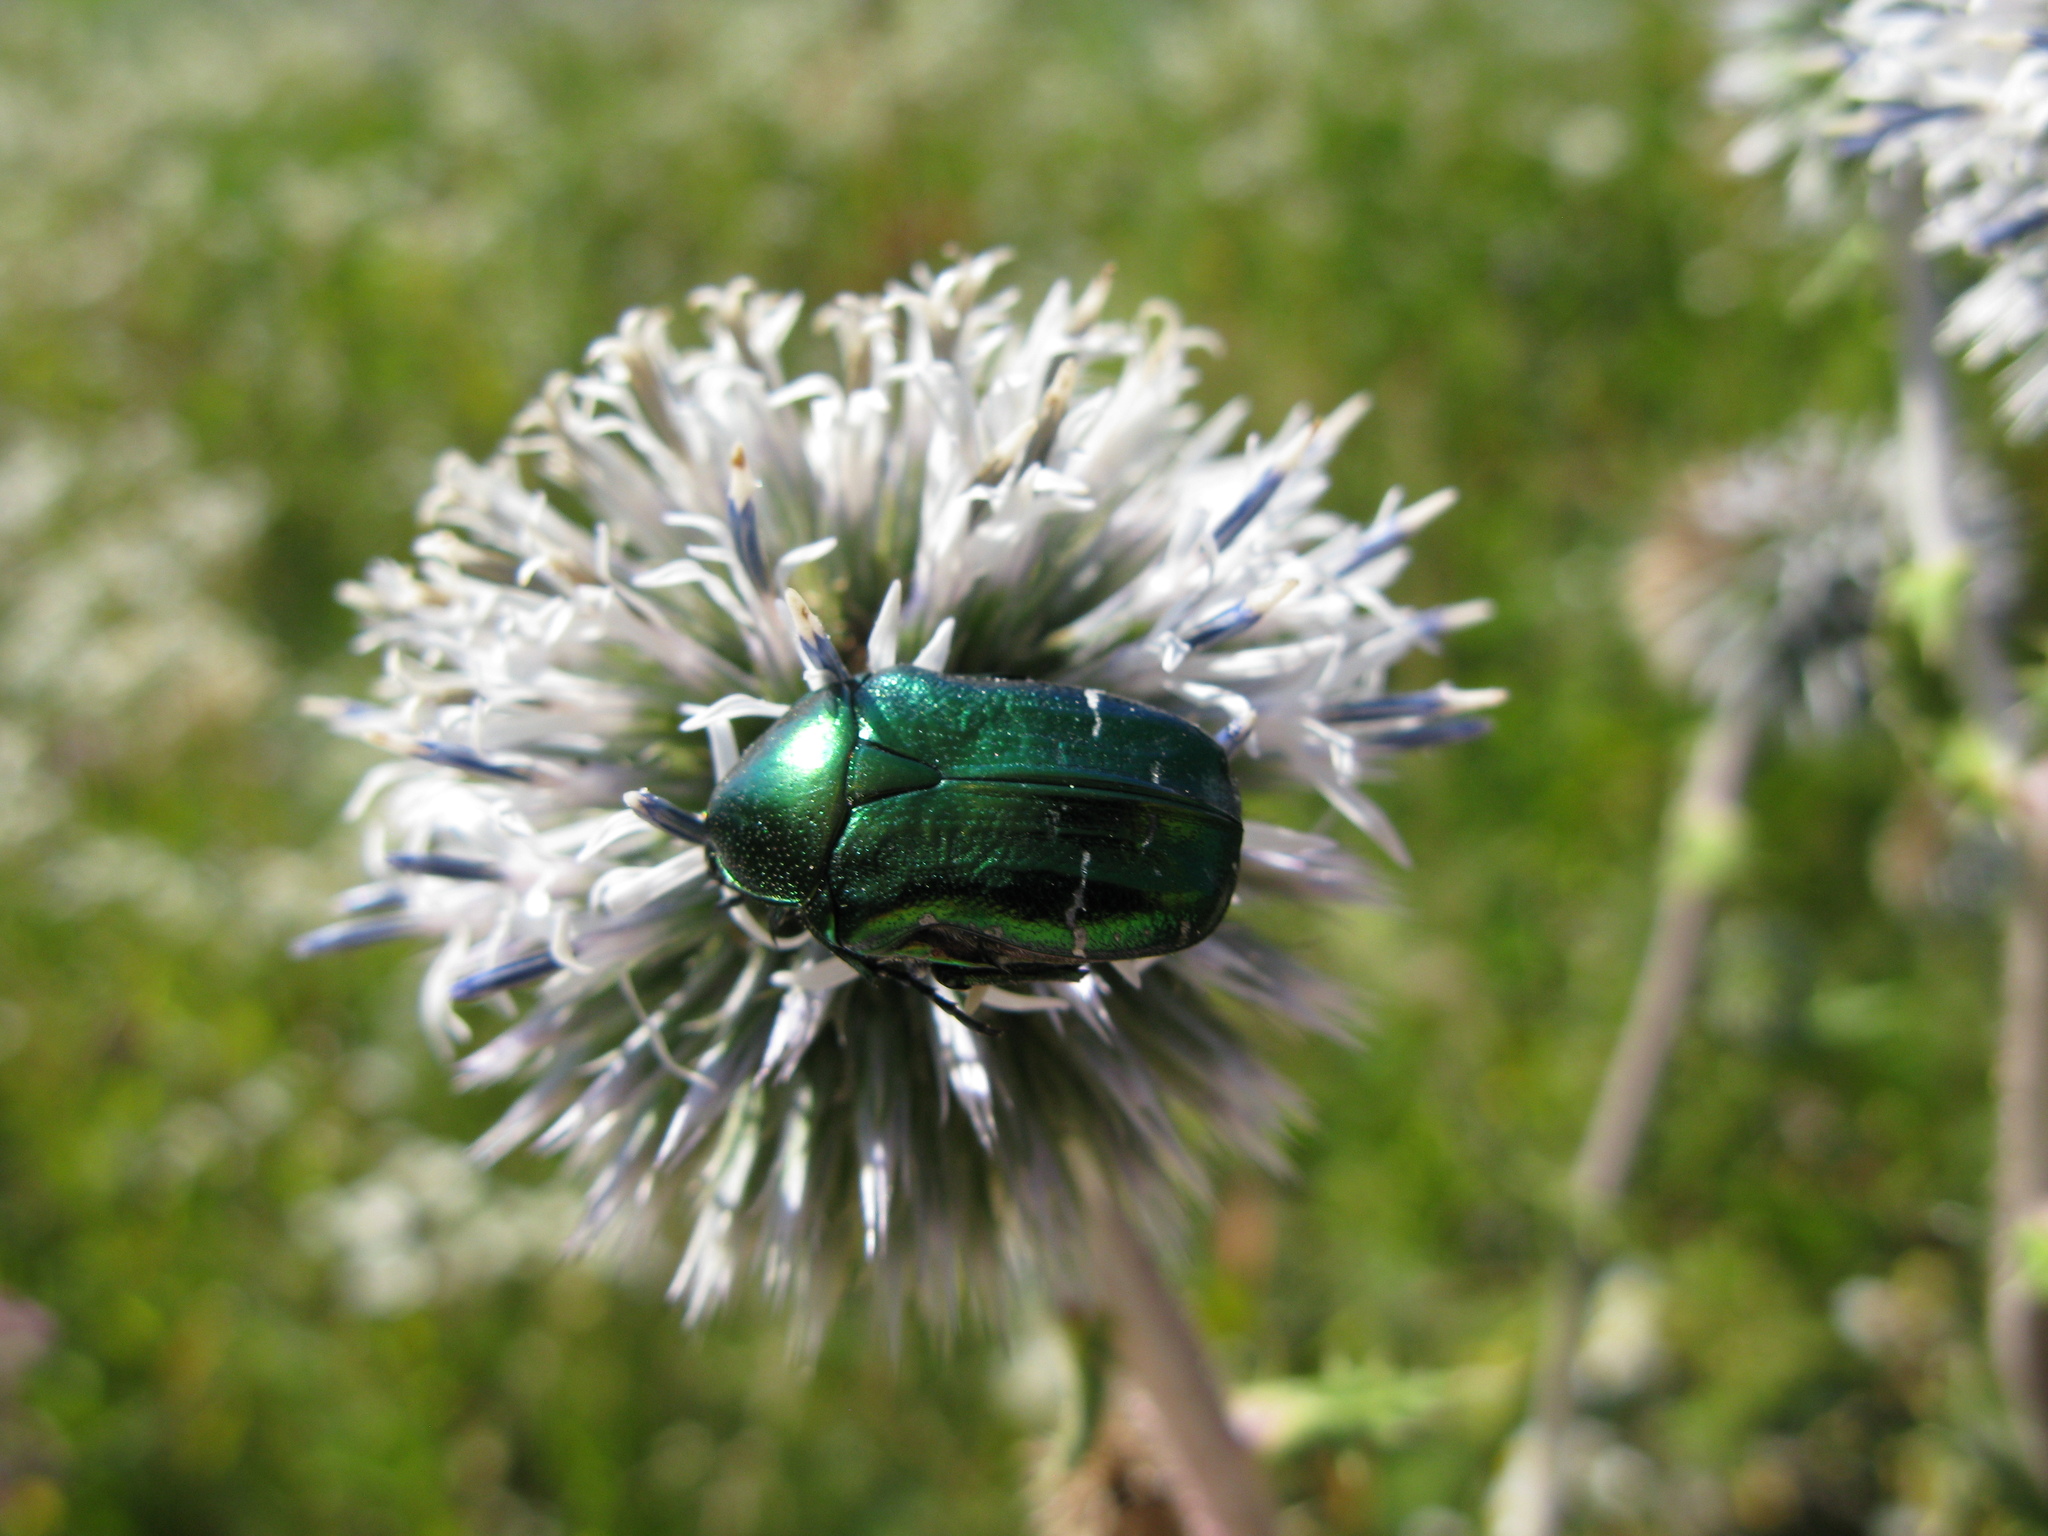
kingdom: Animalia
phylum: Arthropoda
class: Insecta
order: Coleoptera
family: Scarabaeidae
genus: Cetonia
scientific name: Cetonia aurata
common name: Rose chafer
